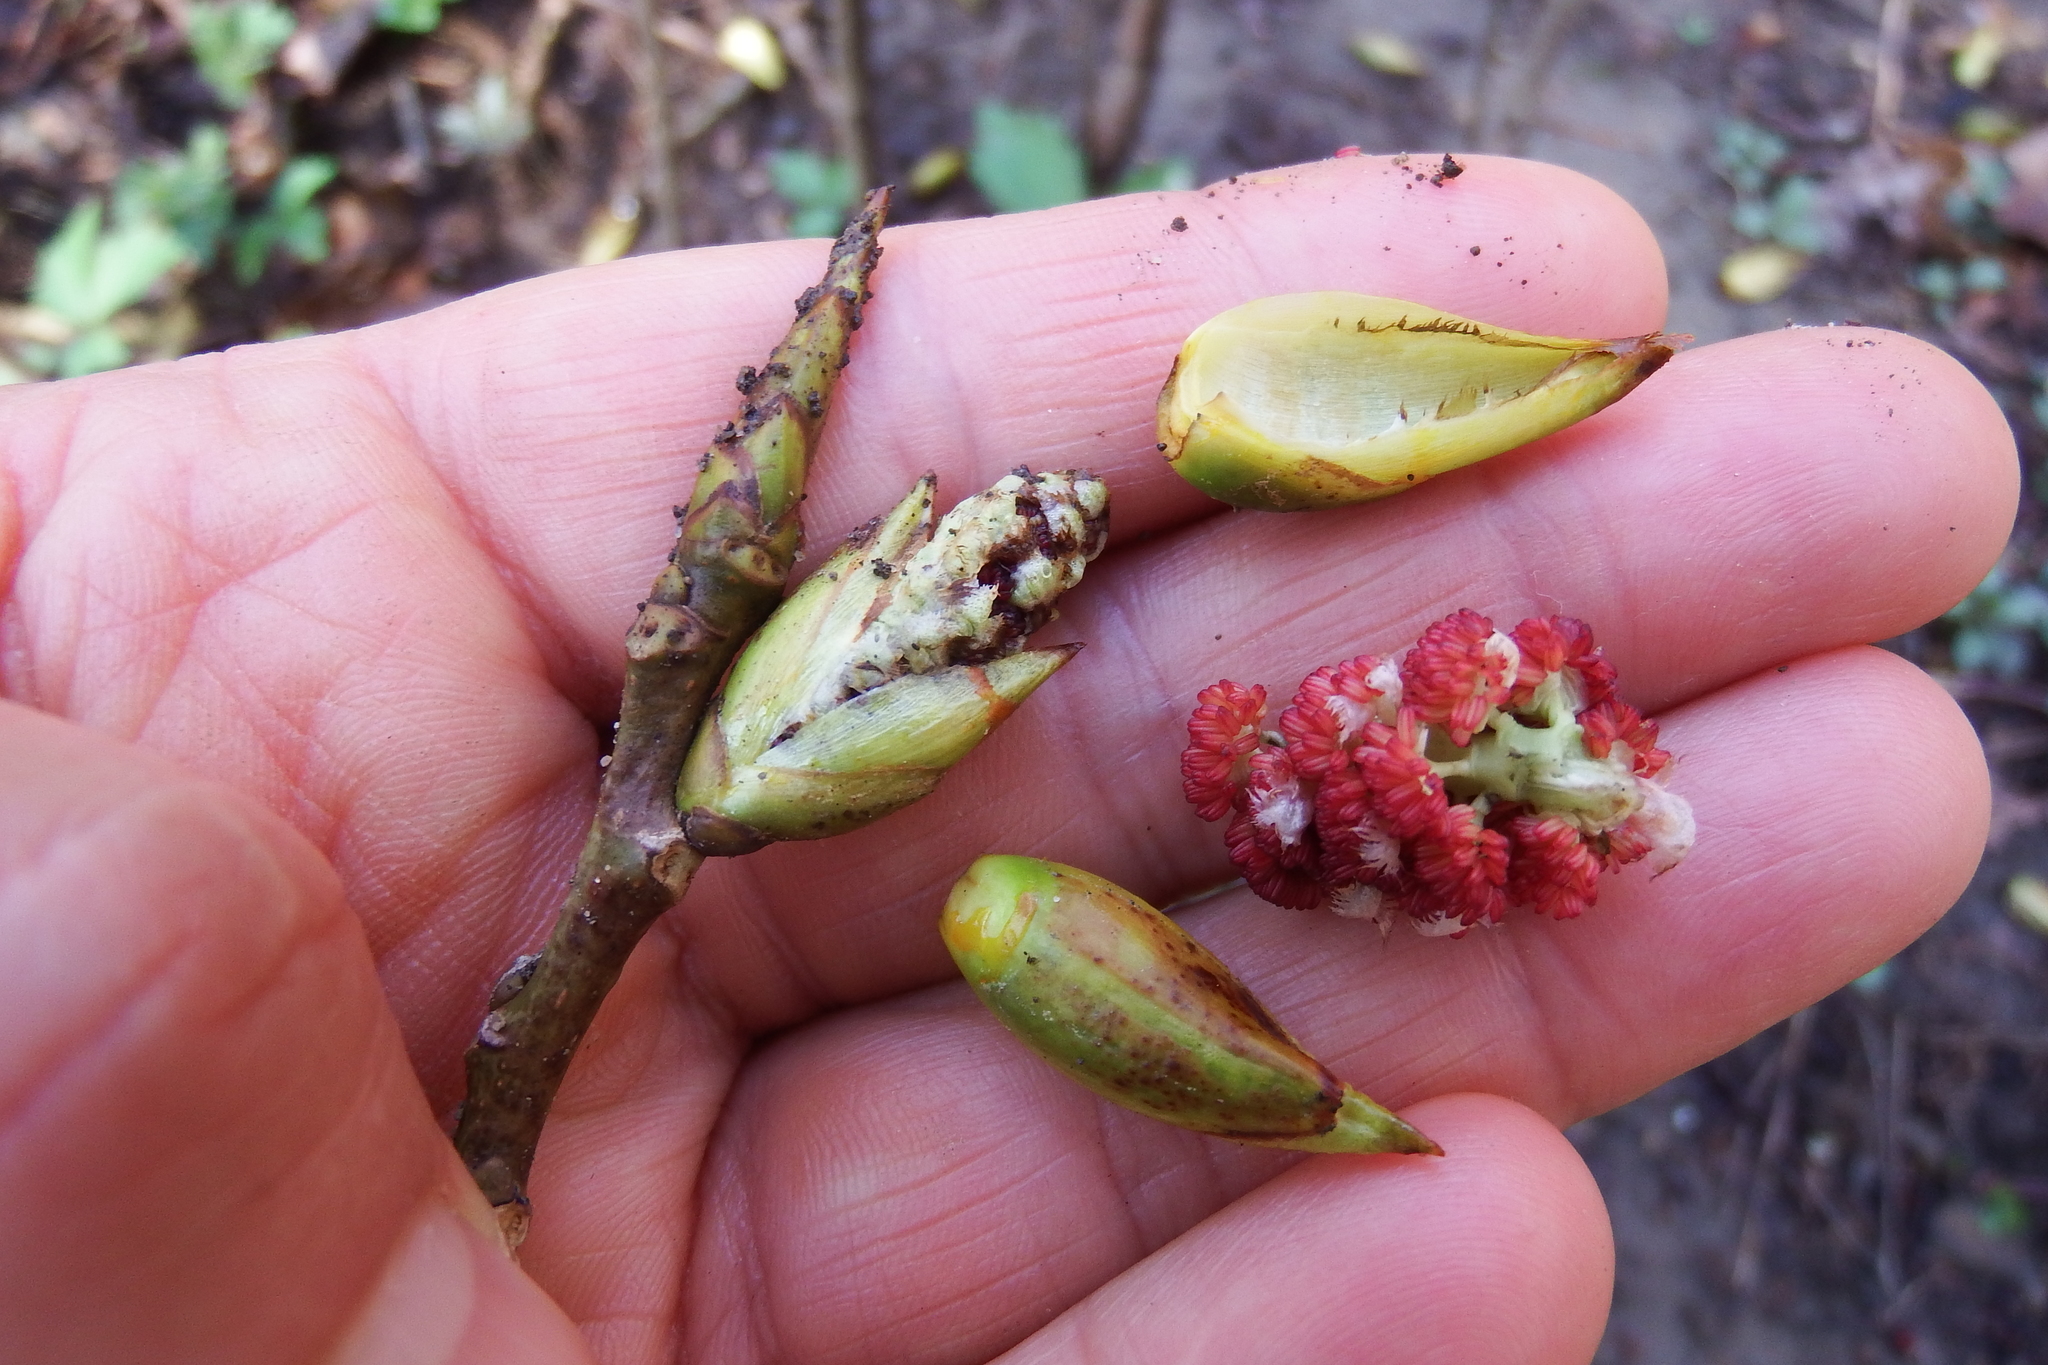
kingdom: Plantae
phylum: Tracheophyta
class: Magnoliopsida
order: Magnoliales
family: Magnoliaceae
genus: Magnolia
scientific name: Magnolia acuminata
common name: Cucumber magnolia
